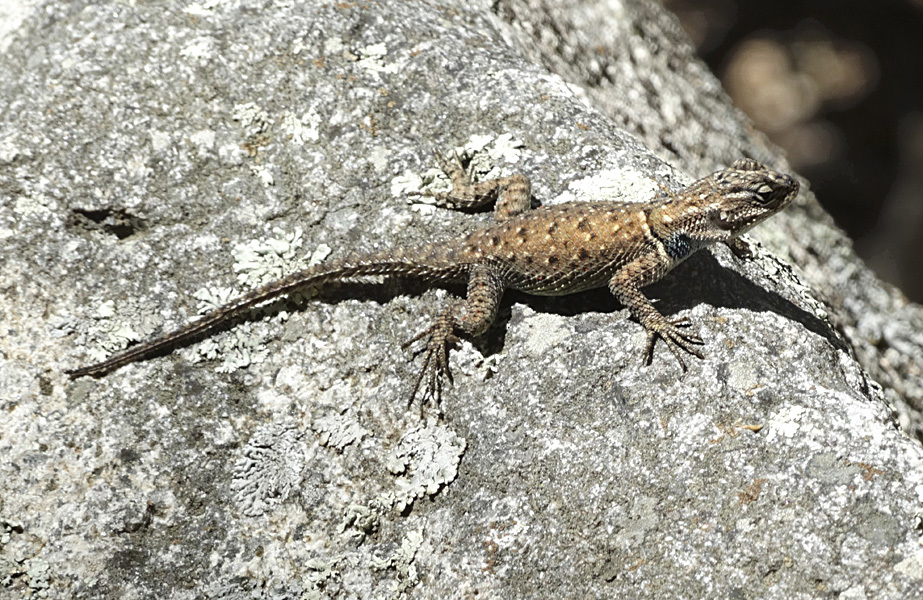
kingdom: Animalia
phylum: Chordata
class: Squamata
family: Phrynosomatidae
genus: Sceloporus
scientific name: Sceloporus jarrovii
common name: Yarrow's spiny lizard
